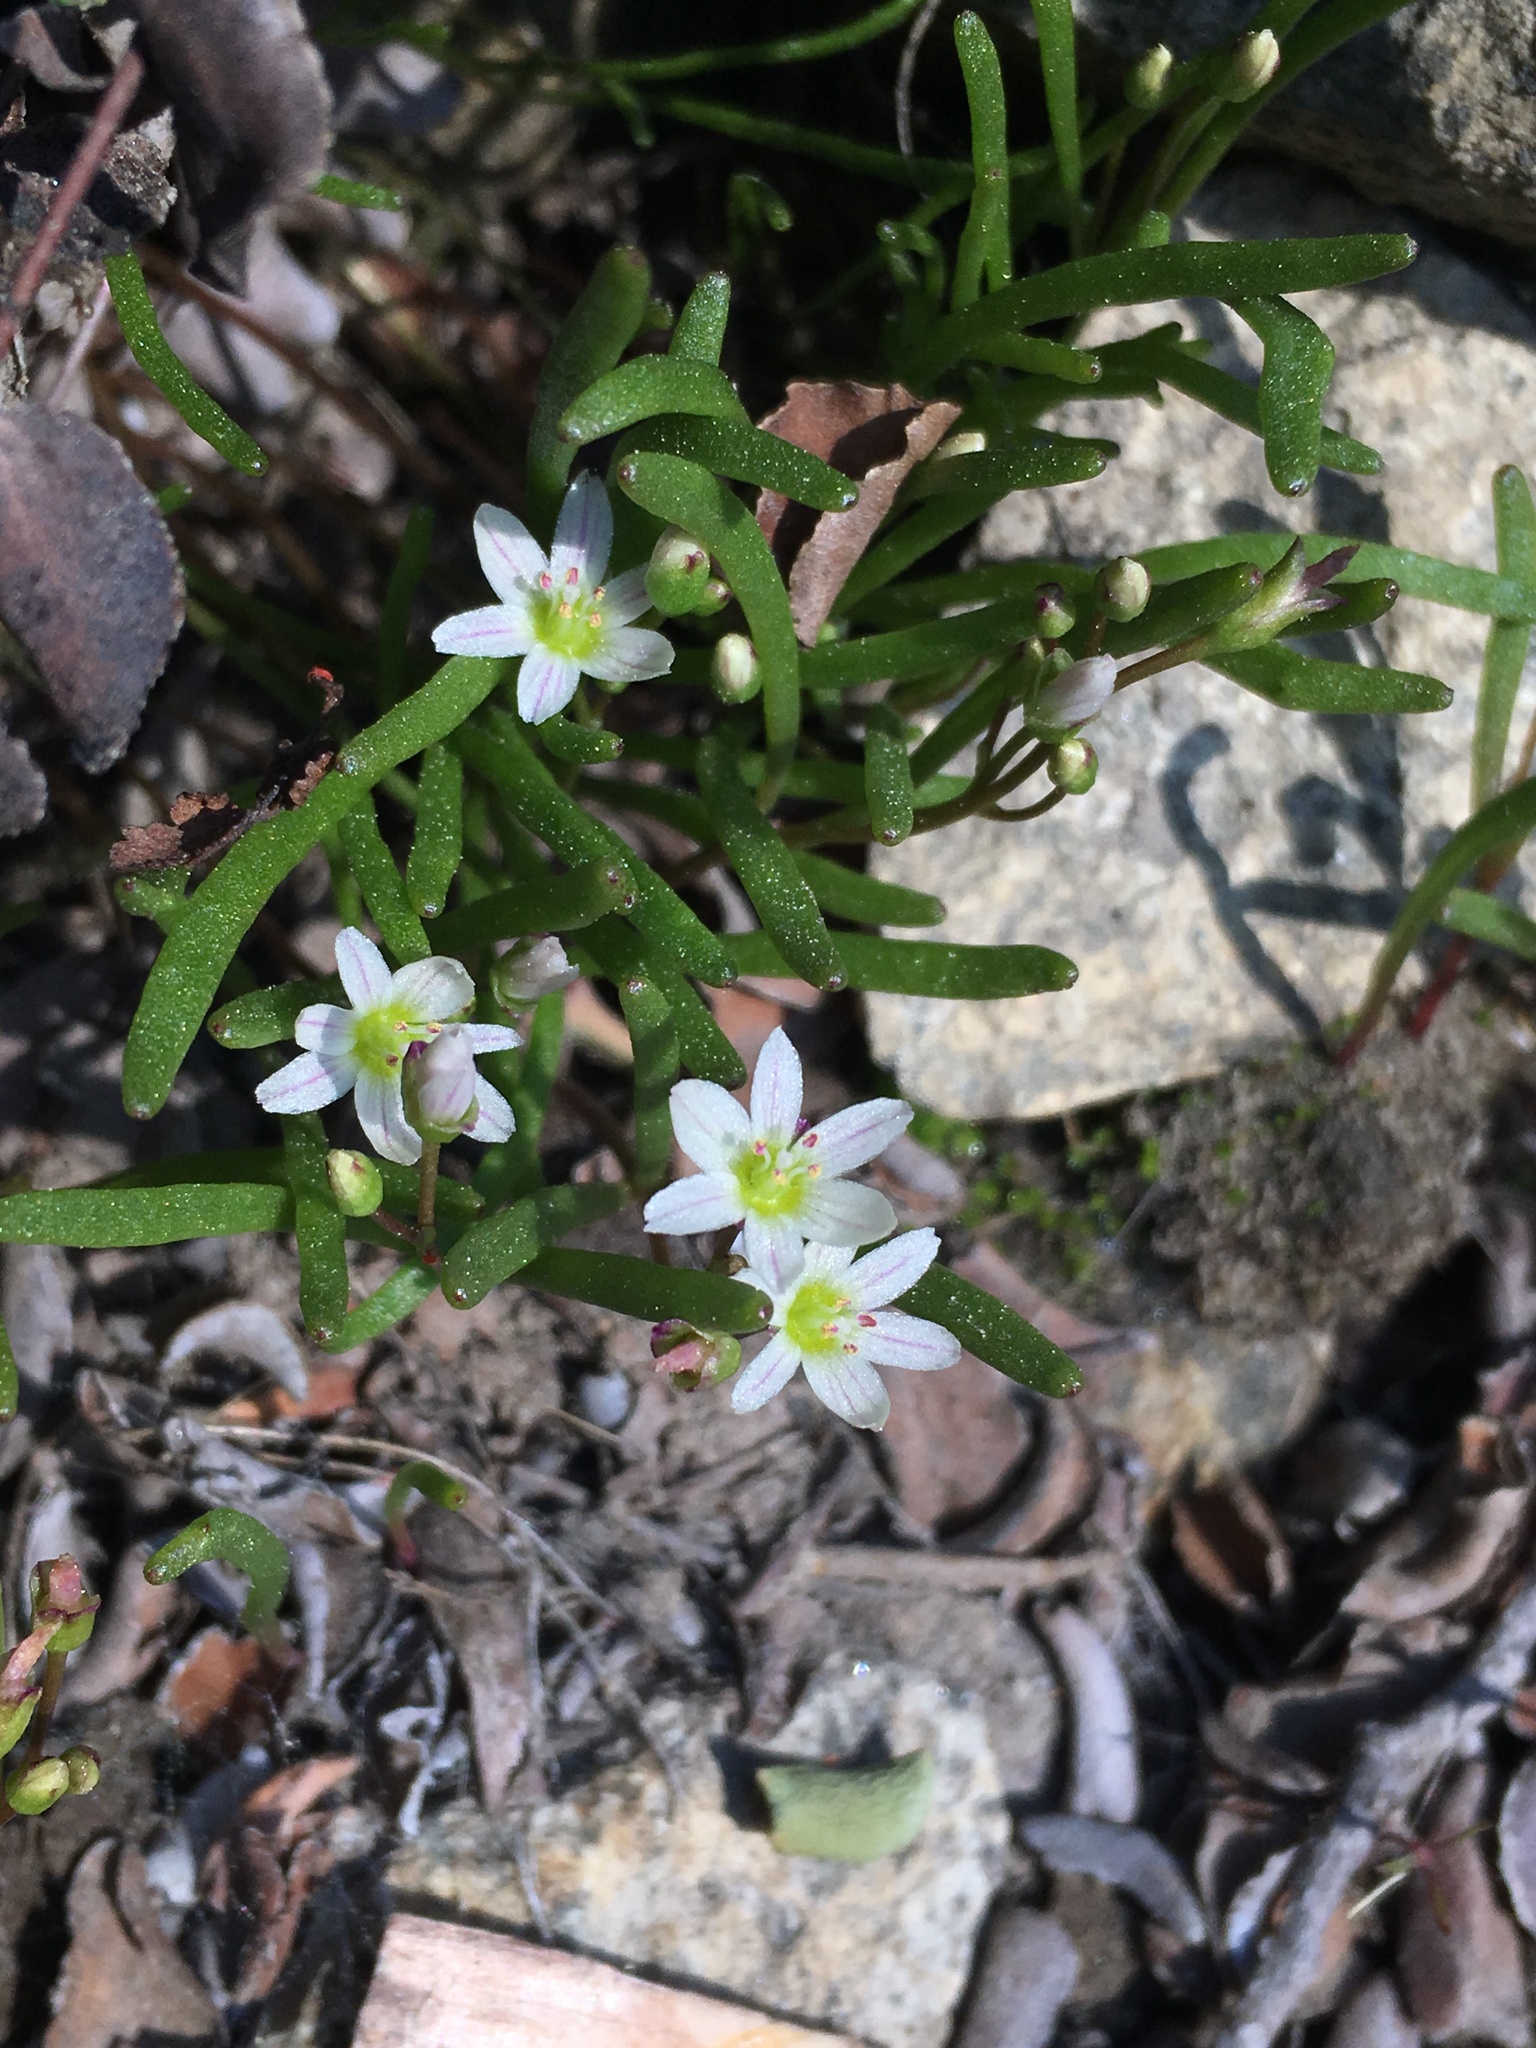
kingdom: Plantae
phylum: Tracheophyta
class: Magnoliopsida
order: Caryophyllales
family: Montiaceae
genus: Lewisia
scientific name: Lewisia triphylla
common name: Three-leaved bitterroot
